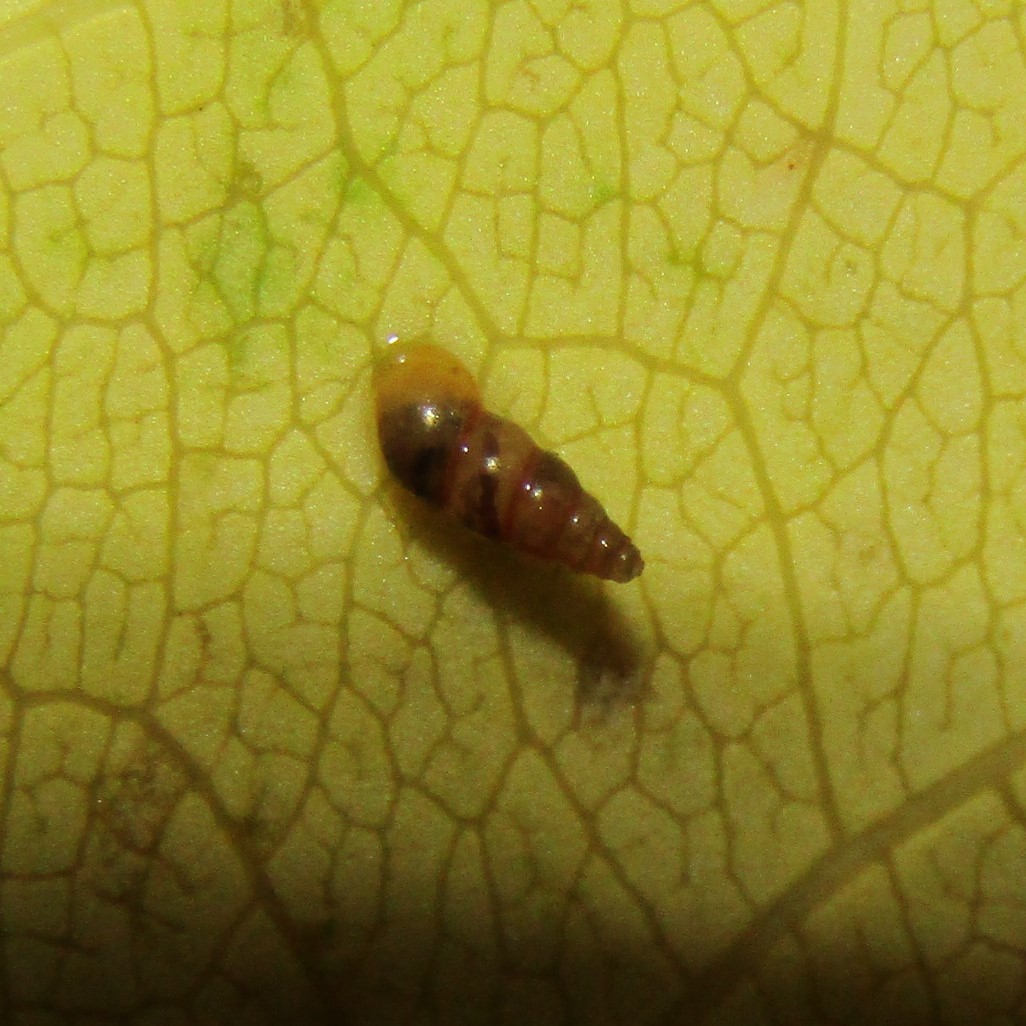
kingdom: Animalia
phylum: Mollusca
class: Gastropoda
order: Littorinimorpha
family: Tateidae
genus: Potamopyrgus
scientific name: Potamopyrgus oppidanus
